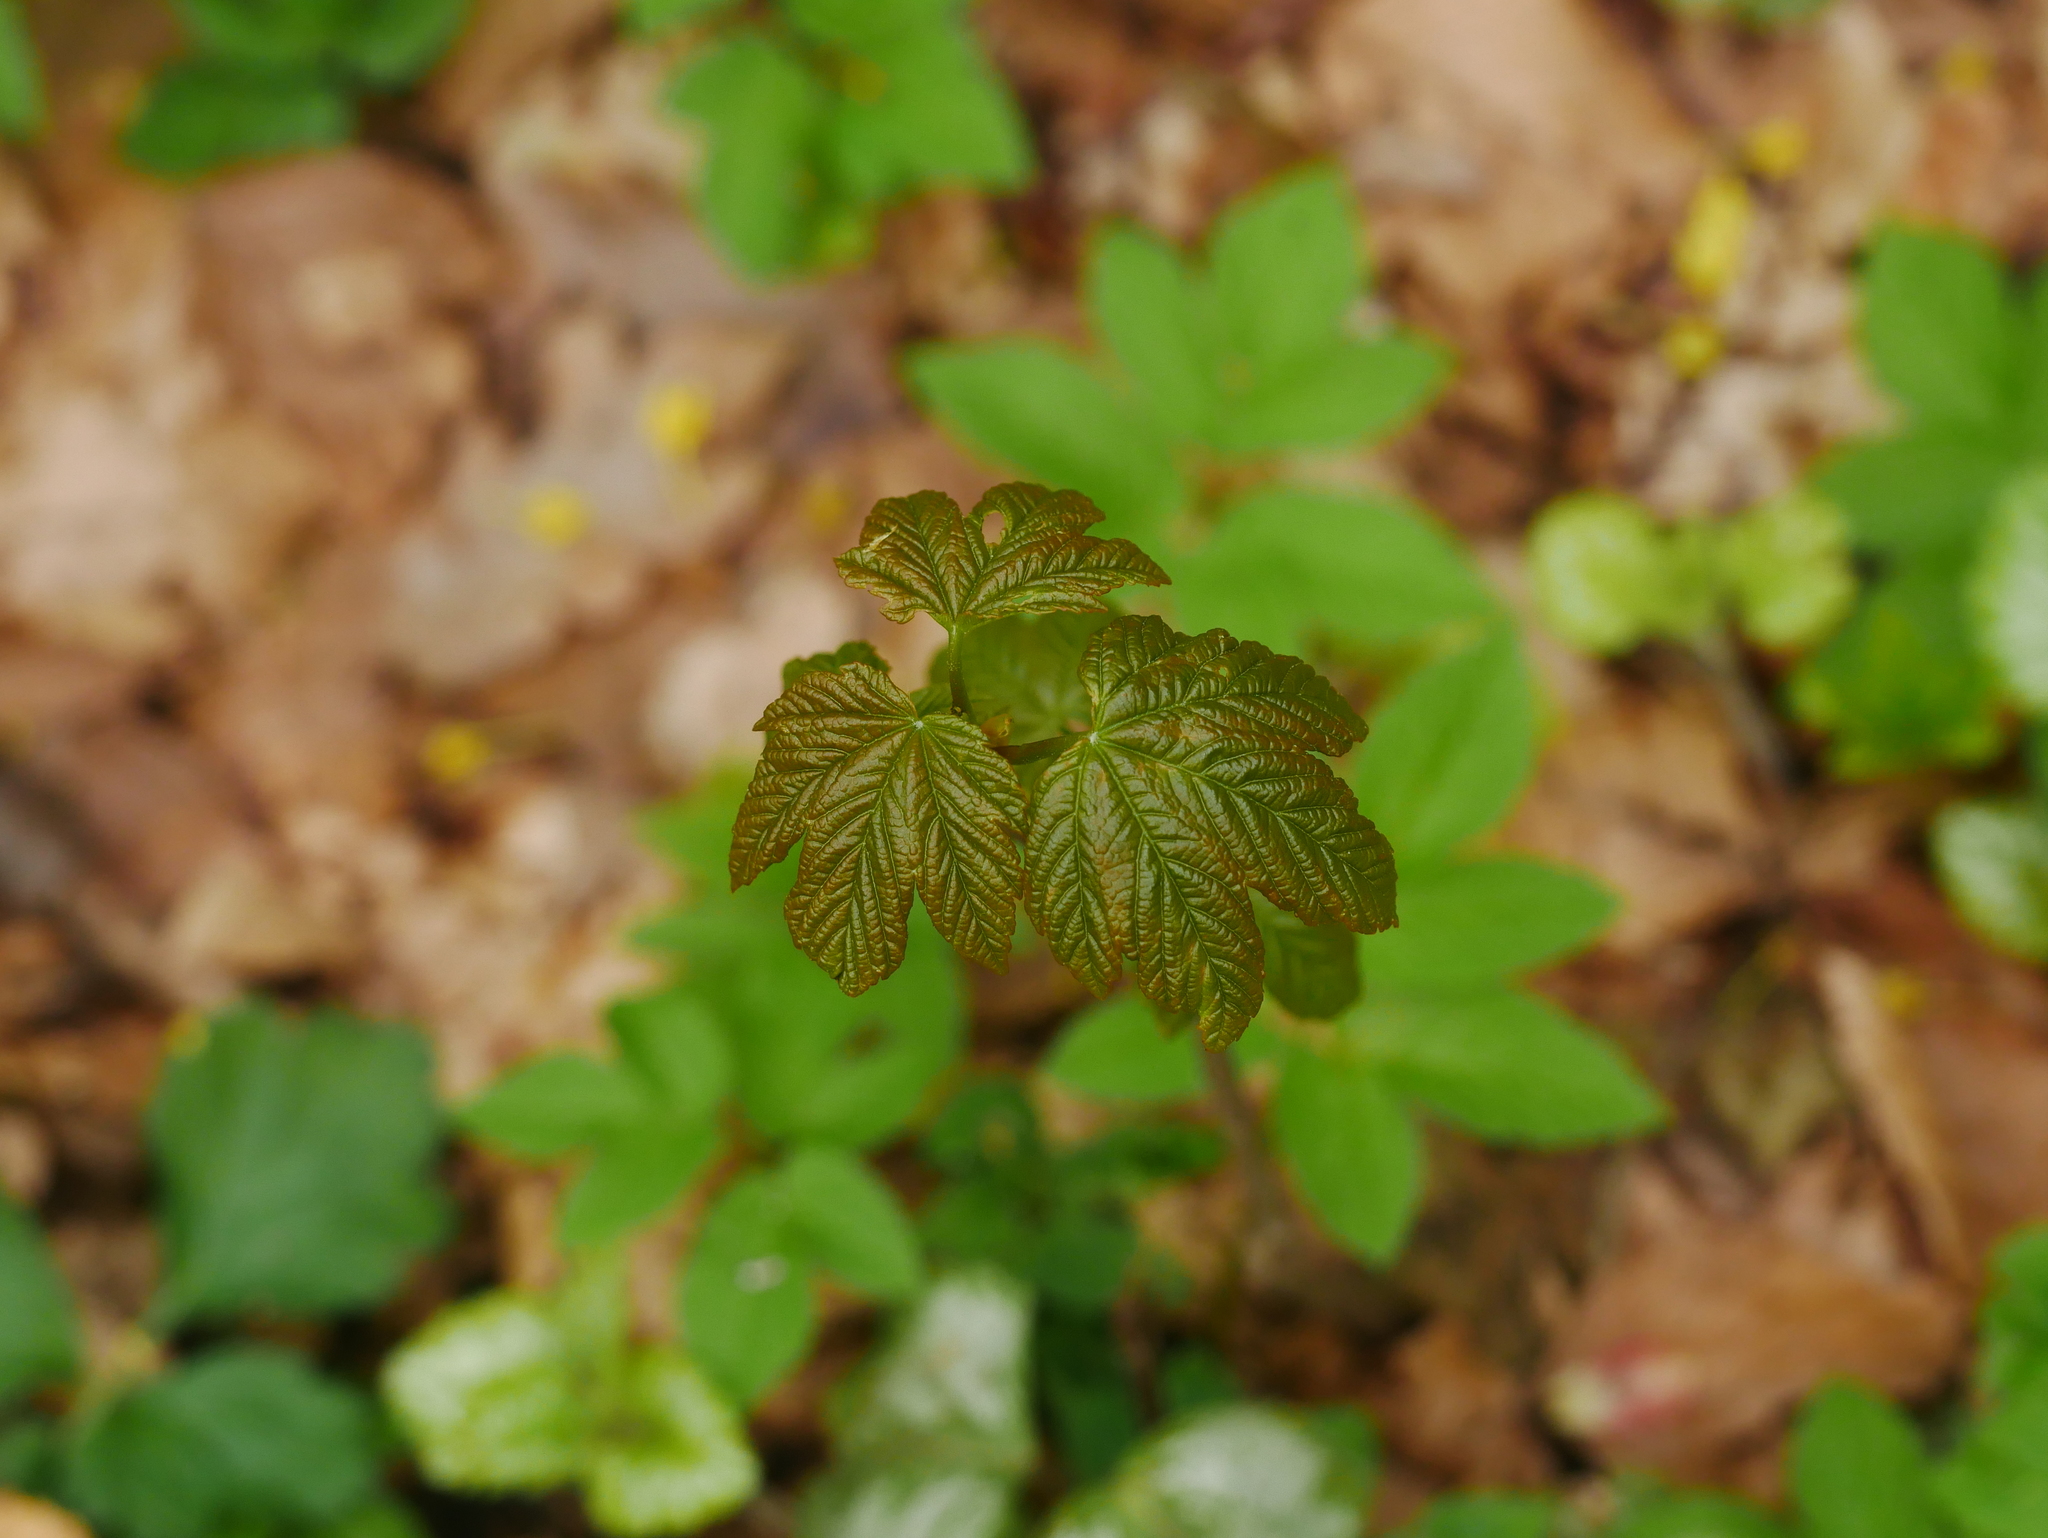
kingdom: Plantae
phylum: Tracheophyta
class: Magnoliopsida
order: Sapindales
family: Sapindaceae
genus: Acer
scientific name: Acer pseudoplatanus
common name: Sycamore
